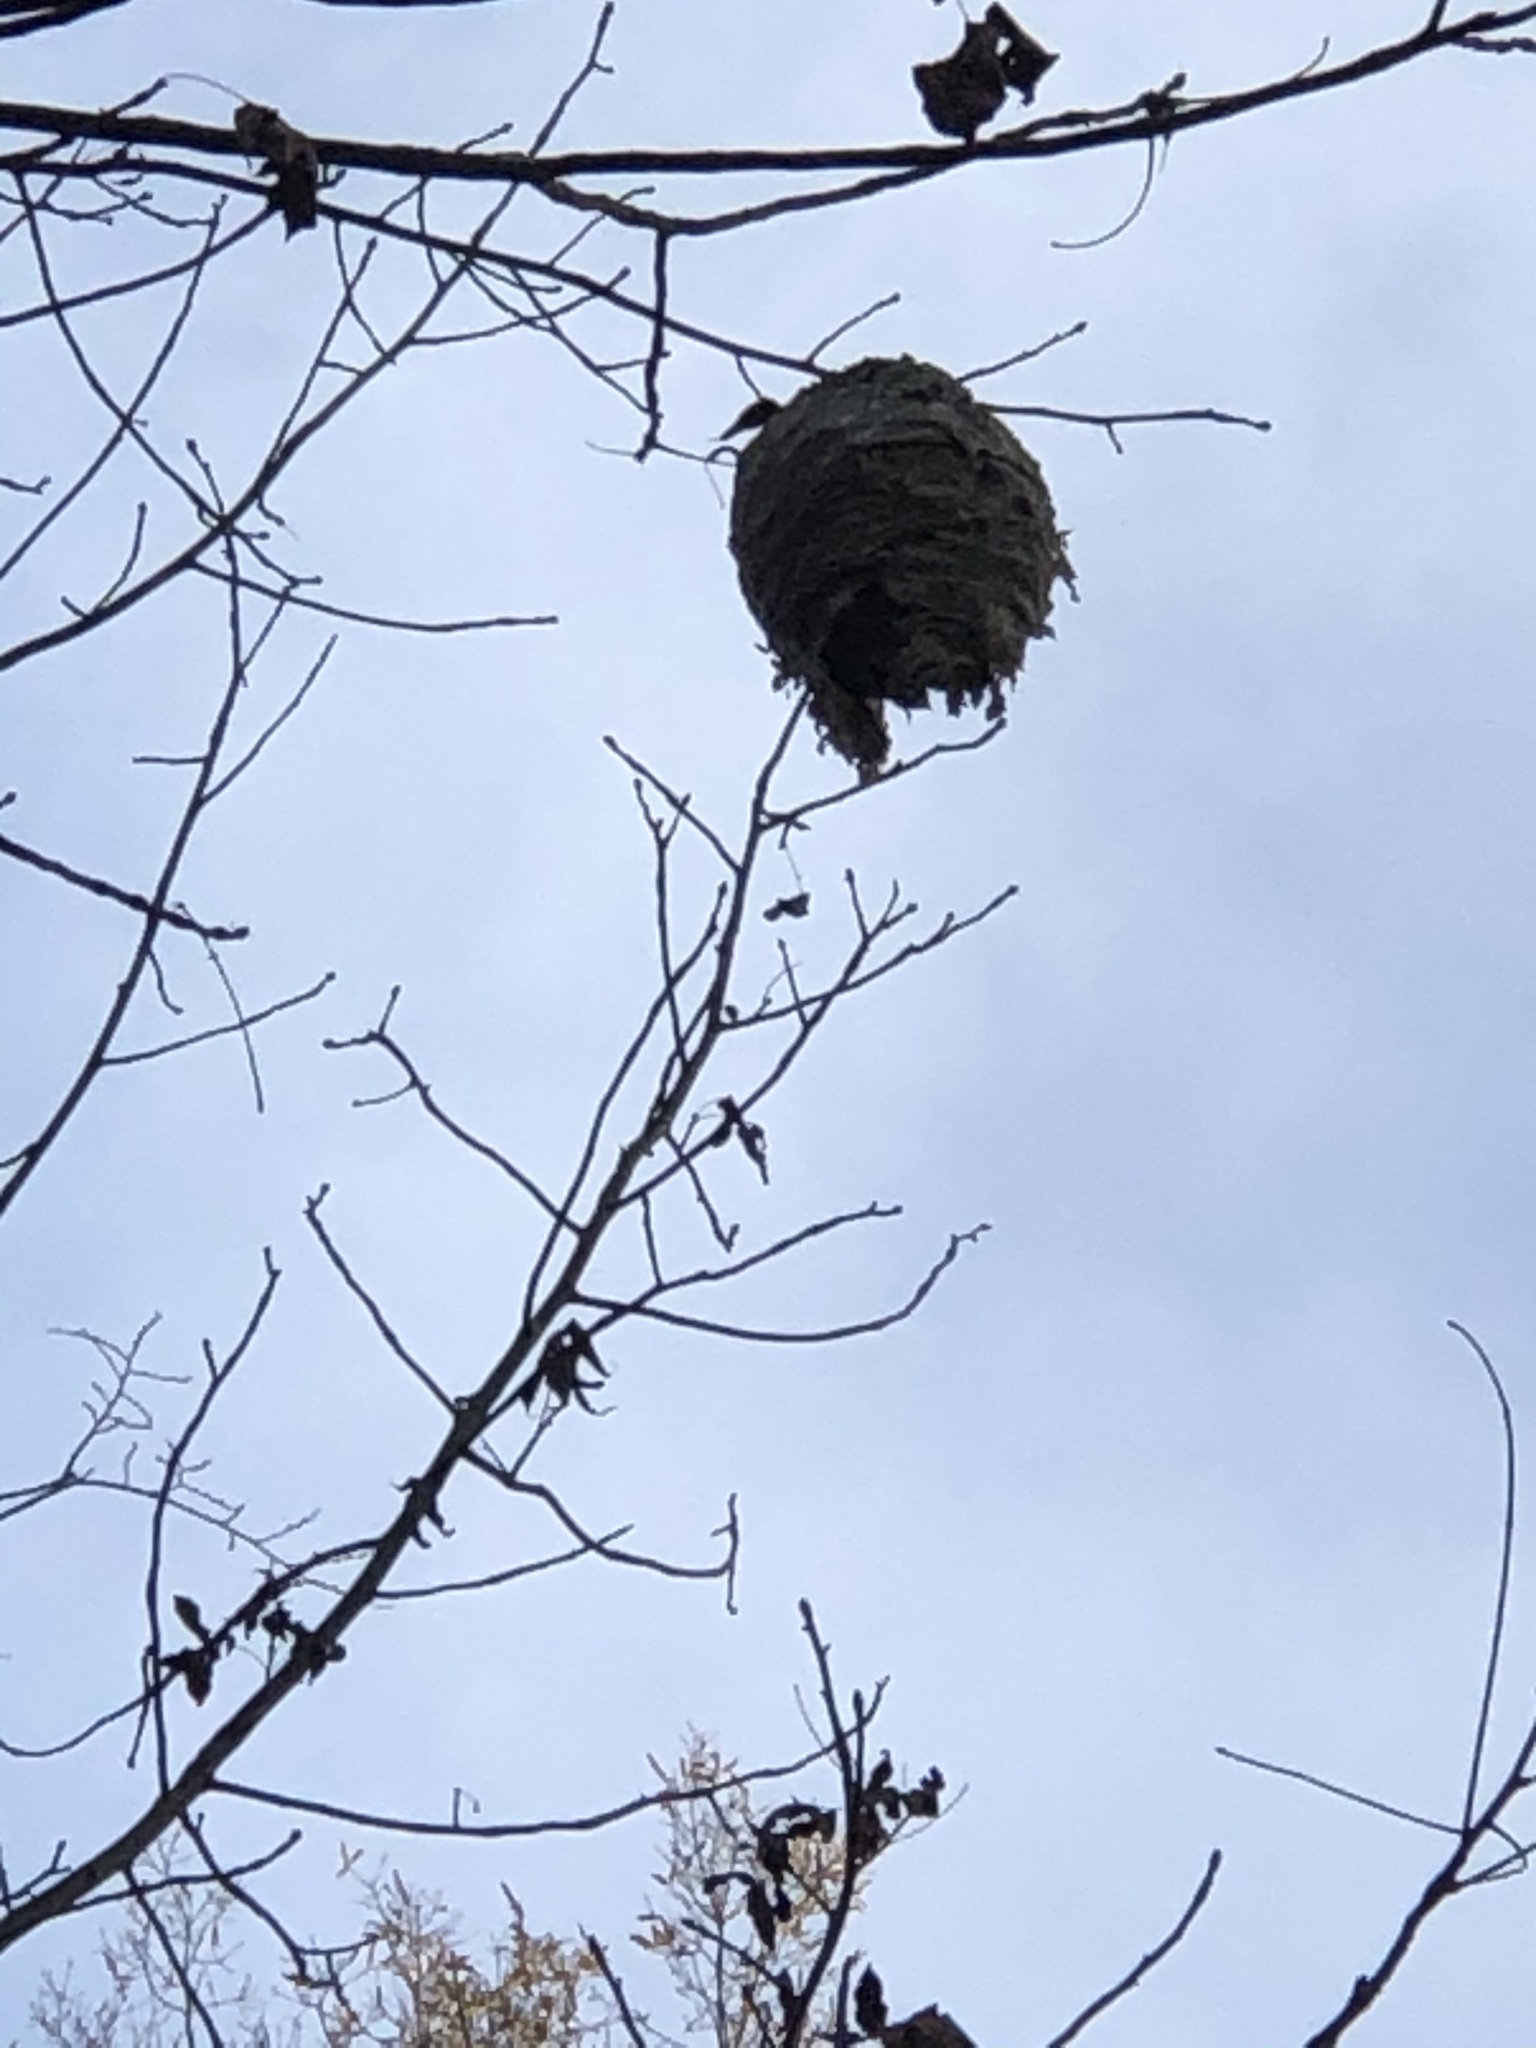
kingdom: Animalia
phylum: Arthropoda
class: Insecta
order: Hymenoptera
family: Vespidae
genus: Dolichovespula
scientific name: Dolichovespula
